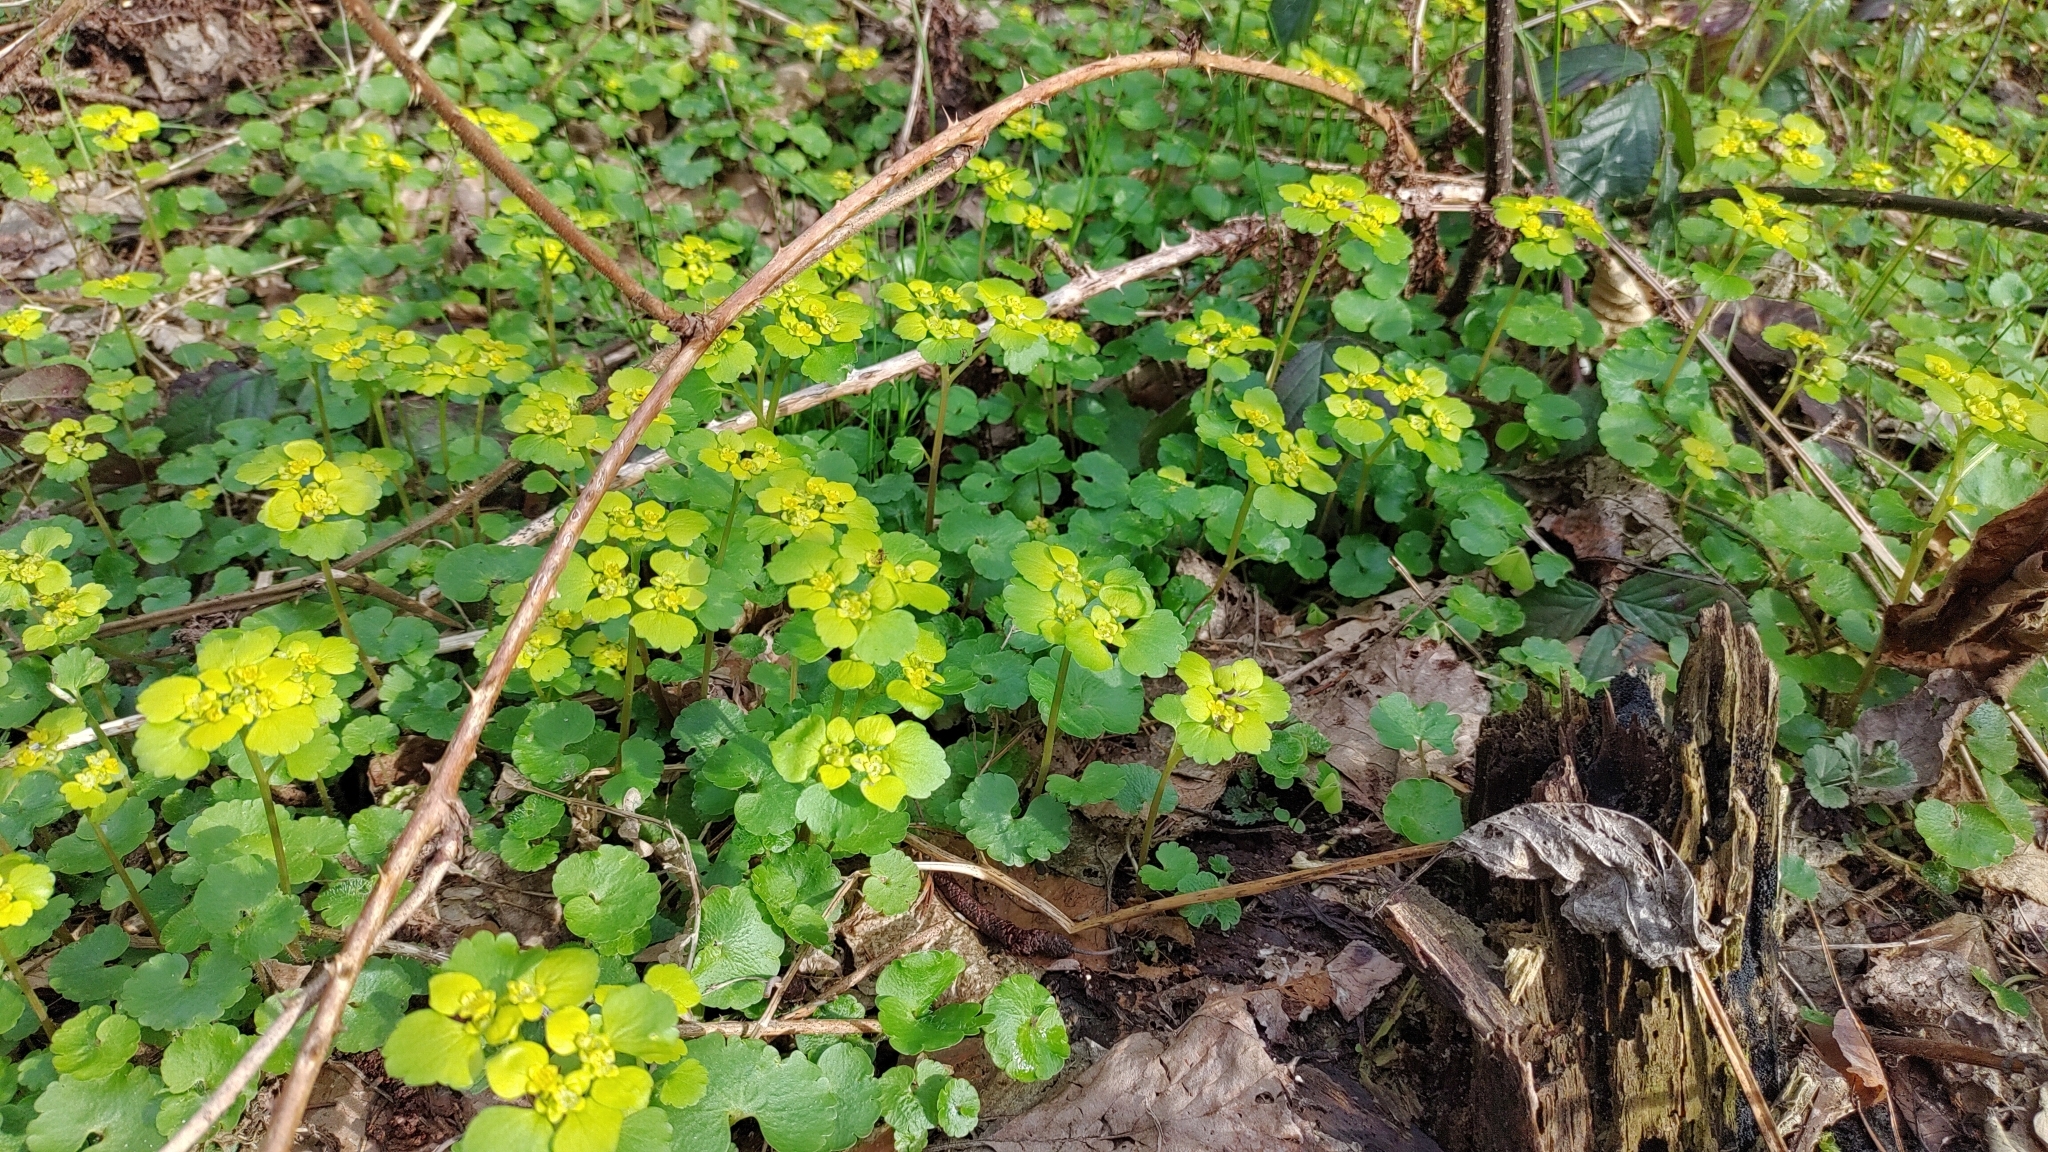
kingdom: Plantae
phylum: Tracheophyta
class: Magnoliopsida
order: Saxifragales
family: Saxifragaceae
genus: Chrysosplenium
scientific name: Chrysosplenium alternifolium
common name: Alternate-leaved golden-saxifrage
